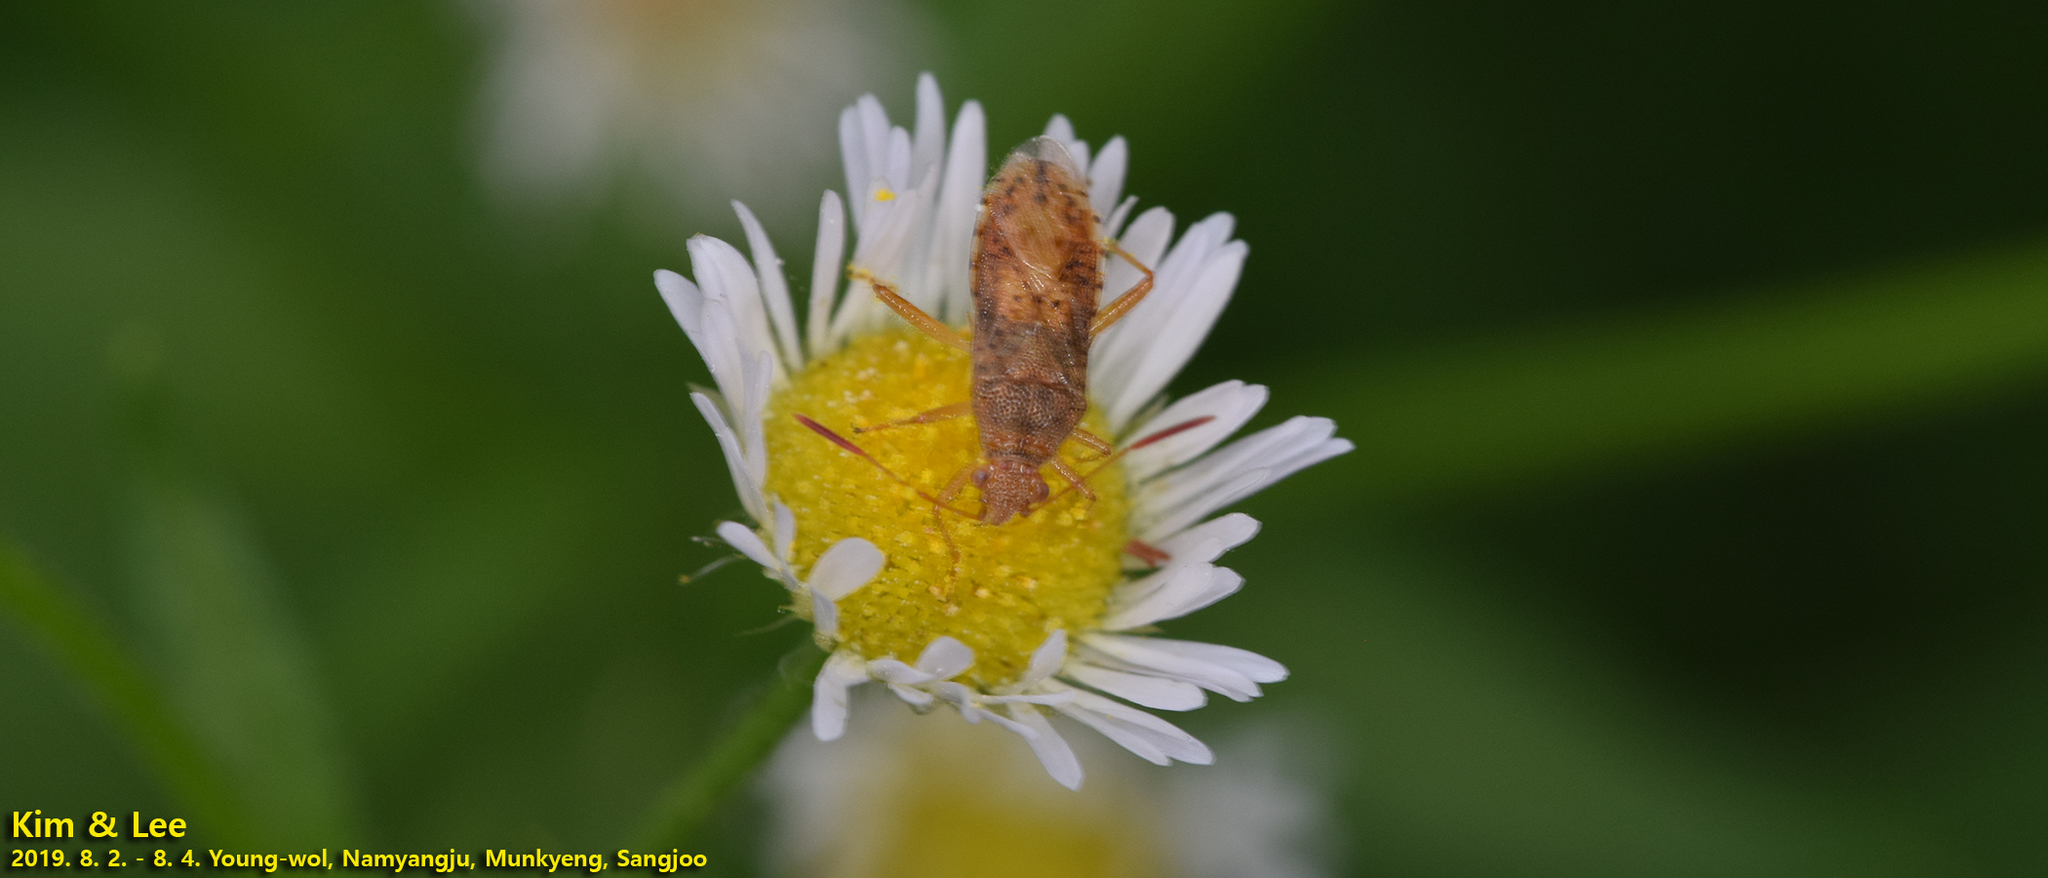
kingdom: Animalia
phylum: Arthropoda
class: Insecta
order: Hemiptera
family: Rhopalidae
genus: Rhopalus
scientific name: Rhopalus maculatus
